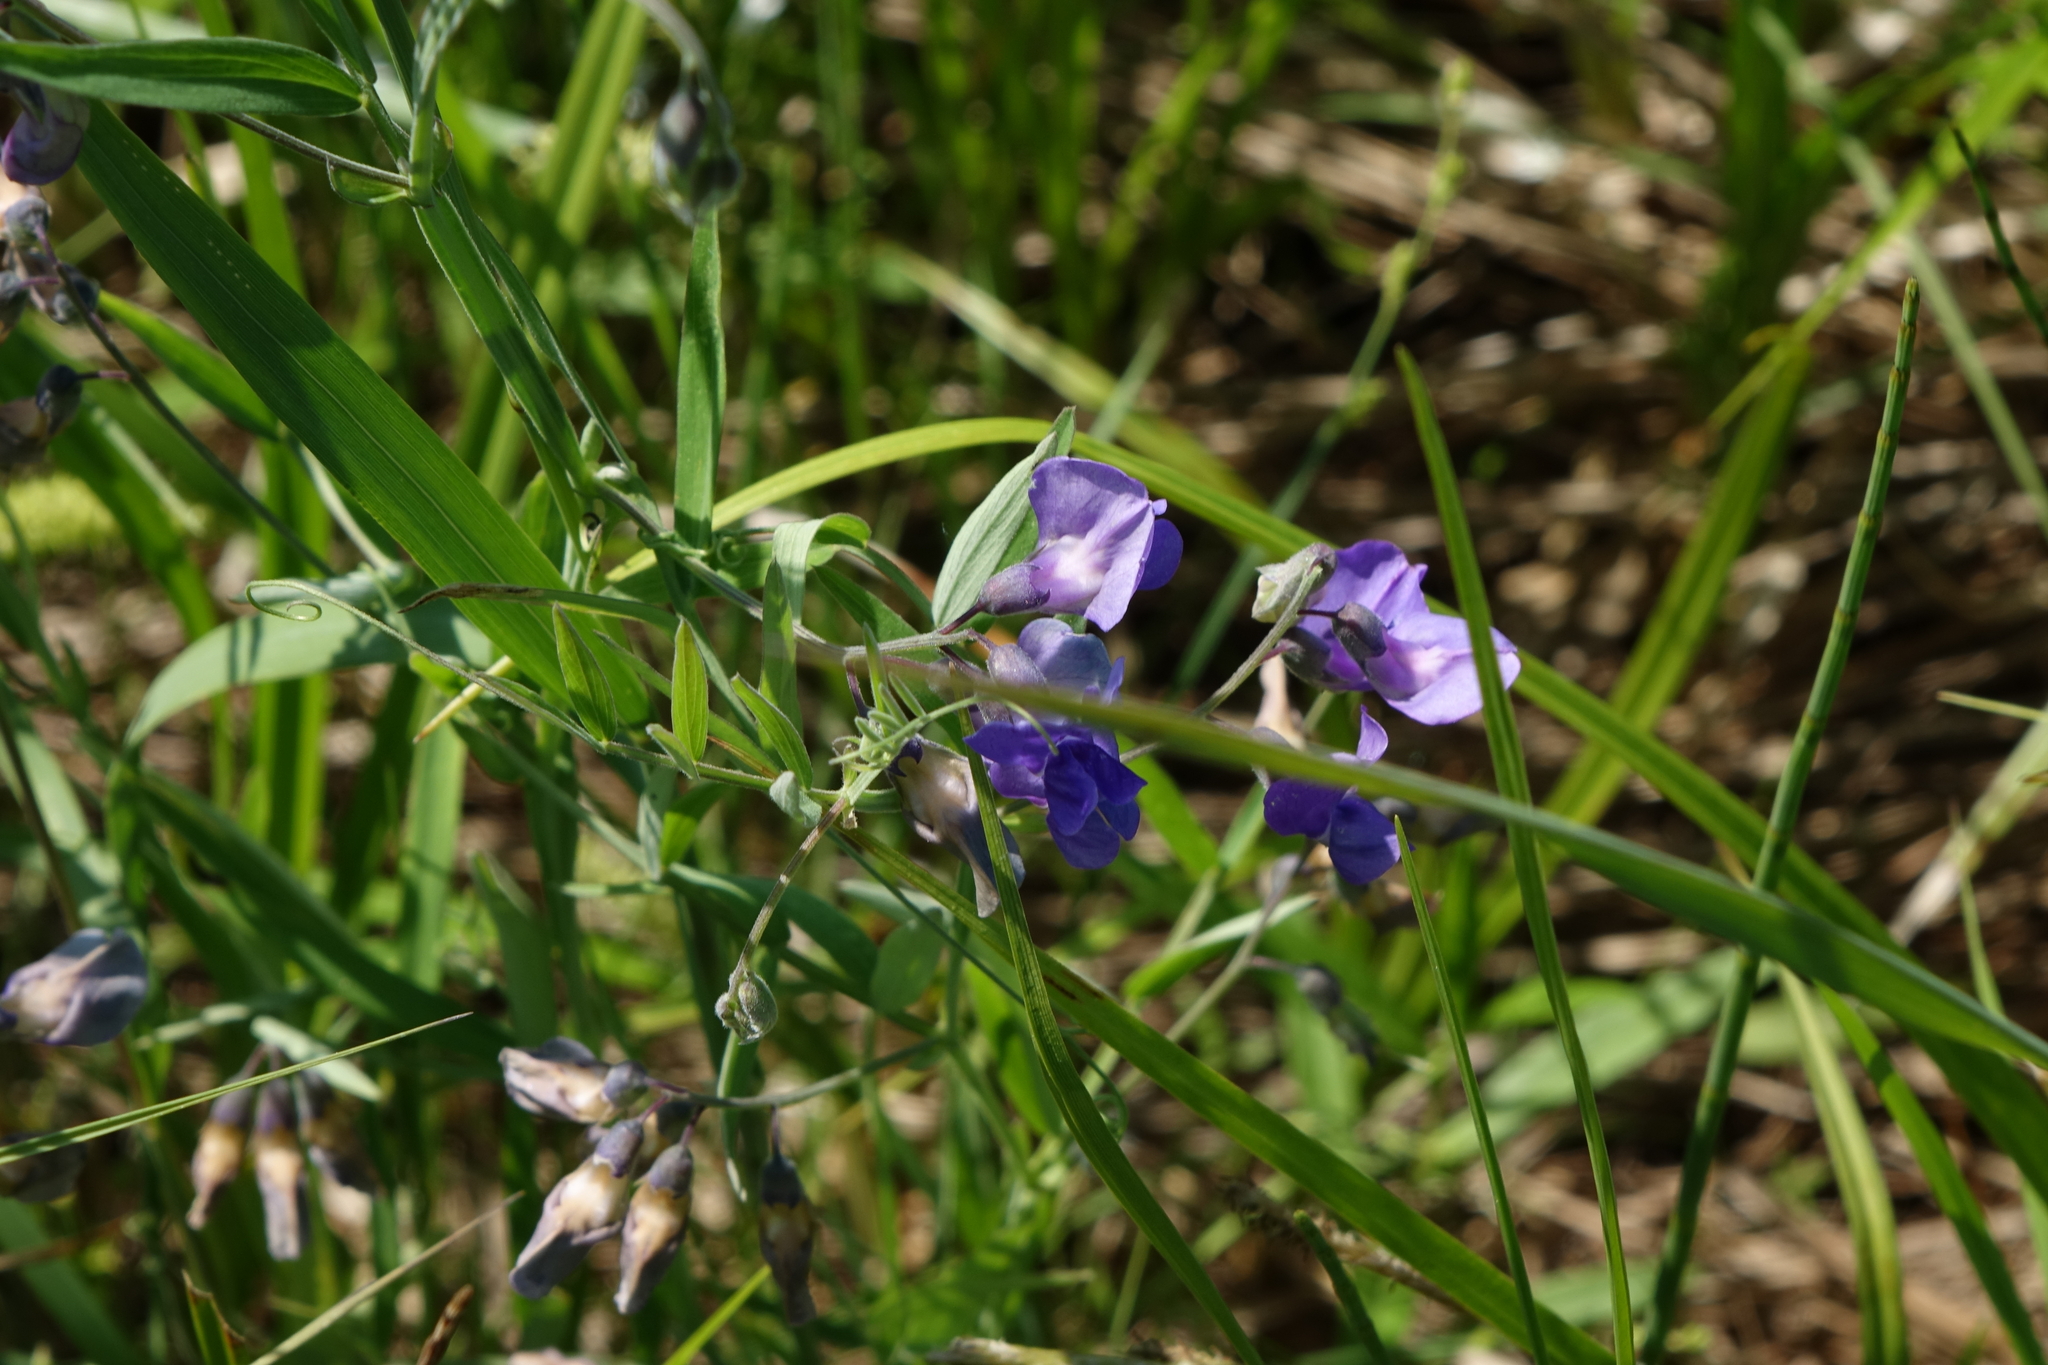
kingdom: Plantae
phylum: Tracheophyta
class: Magnoliopsida
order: Fabales
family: Fabaceae
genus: Lathyrus
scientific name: Lathyrus palustris
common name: Marsh pea
